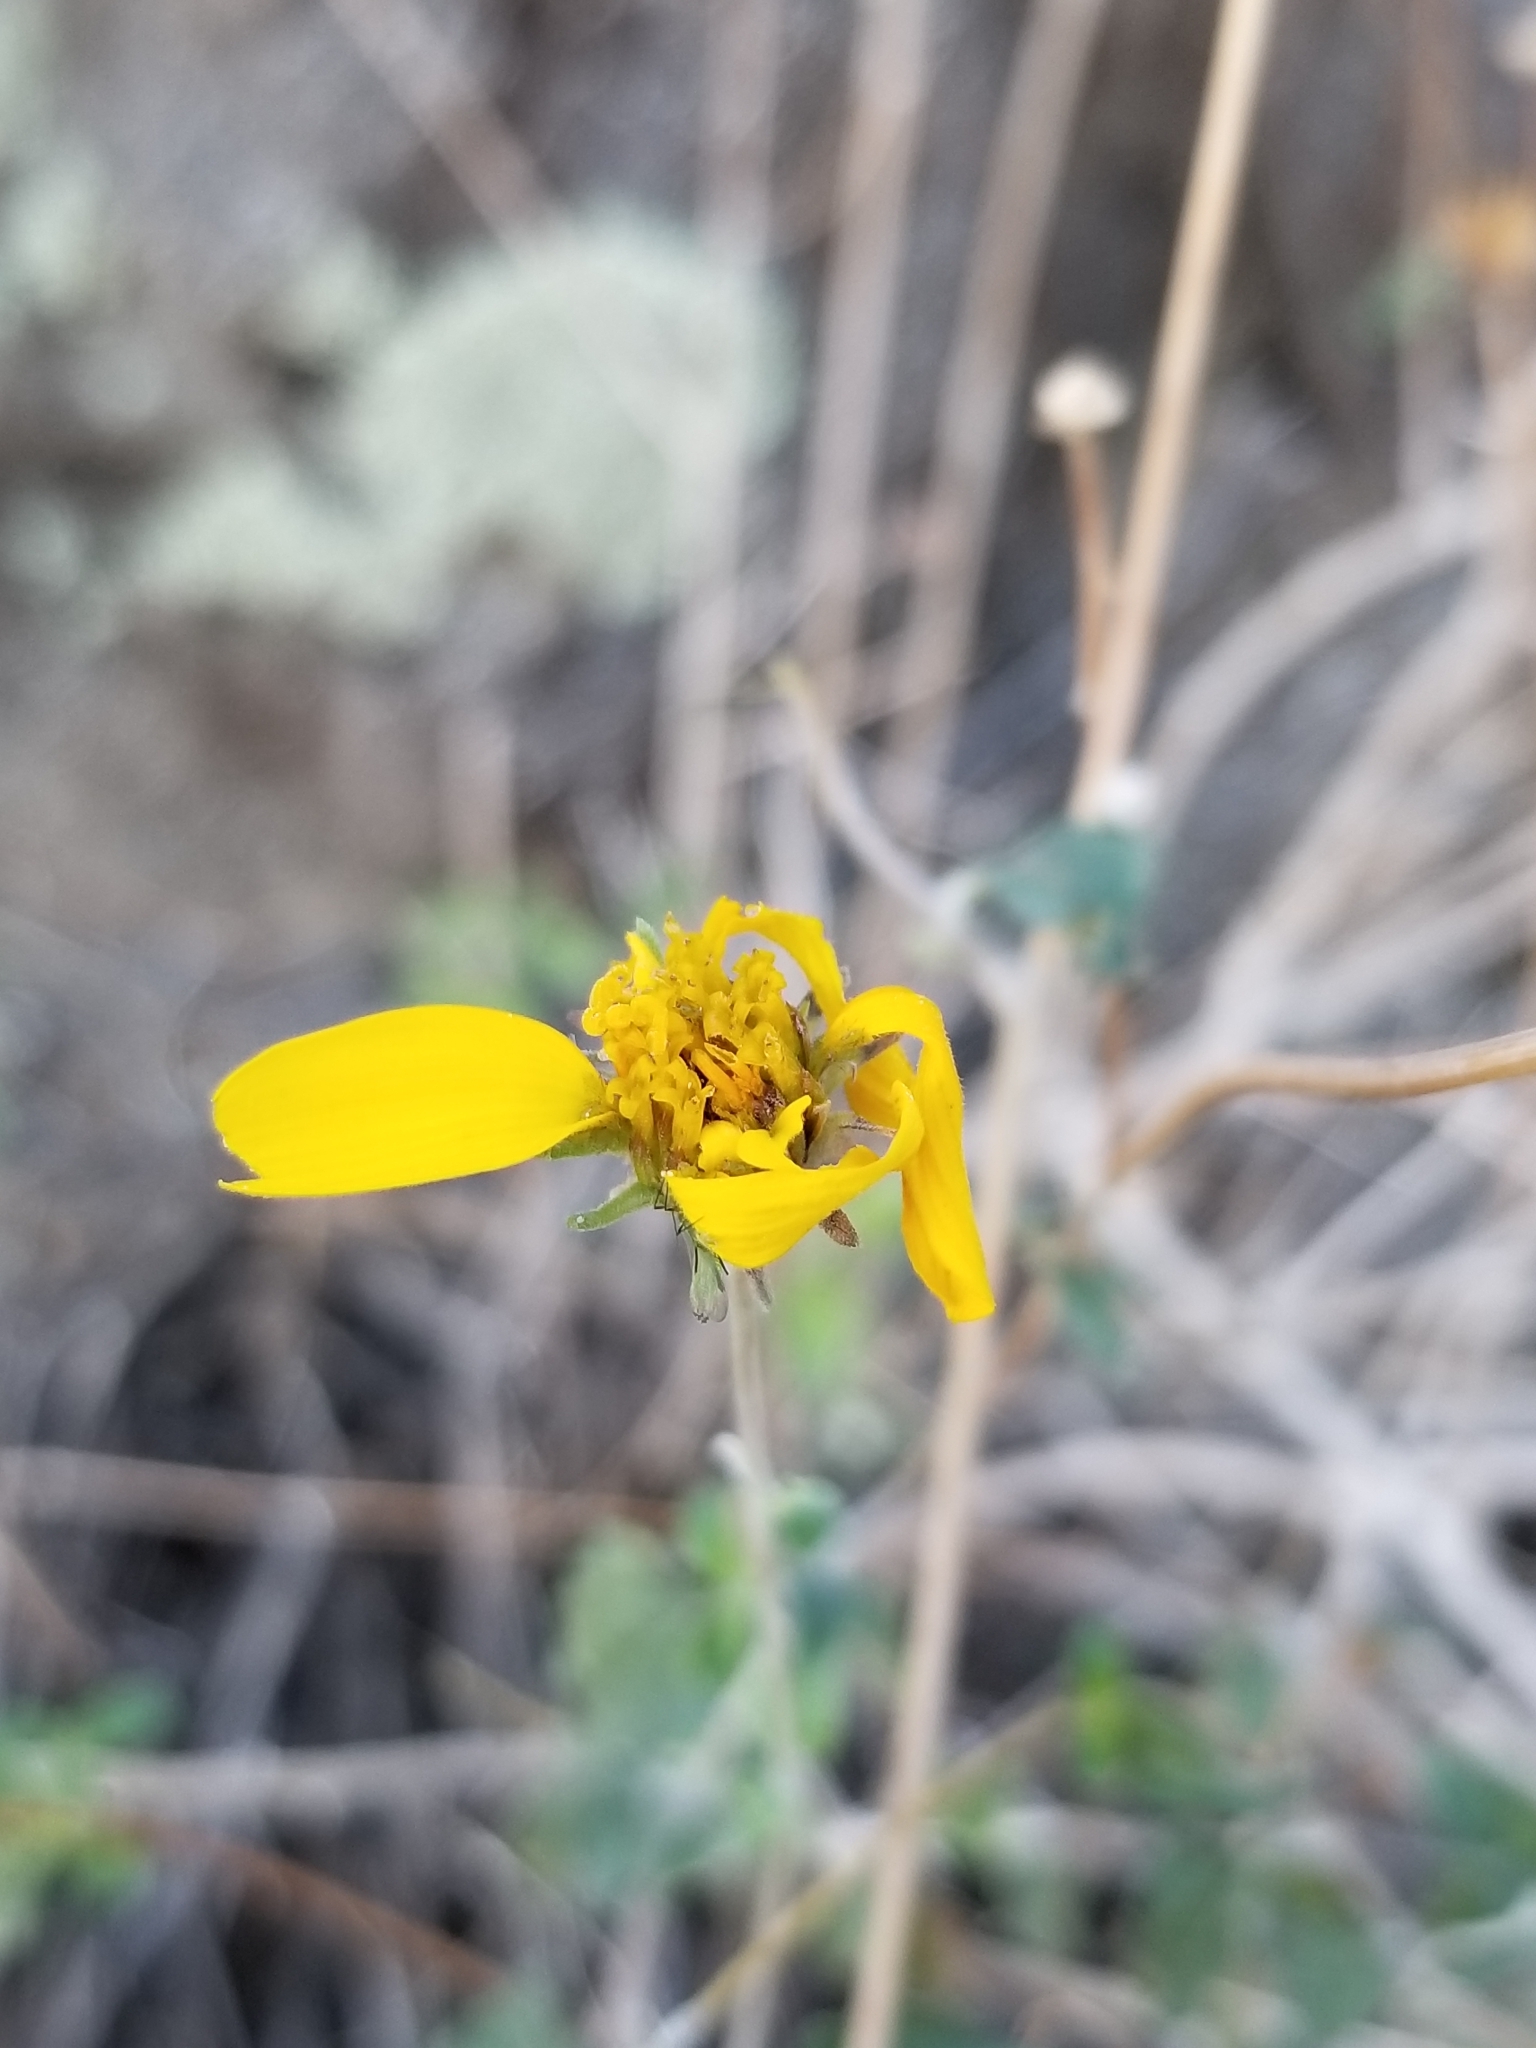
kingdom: Plantae
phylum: Tracheophyta
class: Magnoliopsida
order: Asterales
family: Asteraceae
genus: Bahiopsis
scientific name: Bahiopsis parishii
